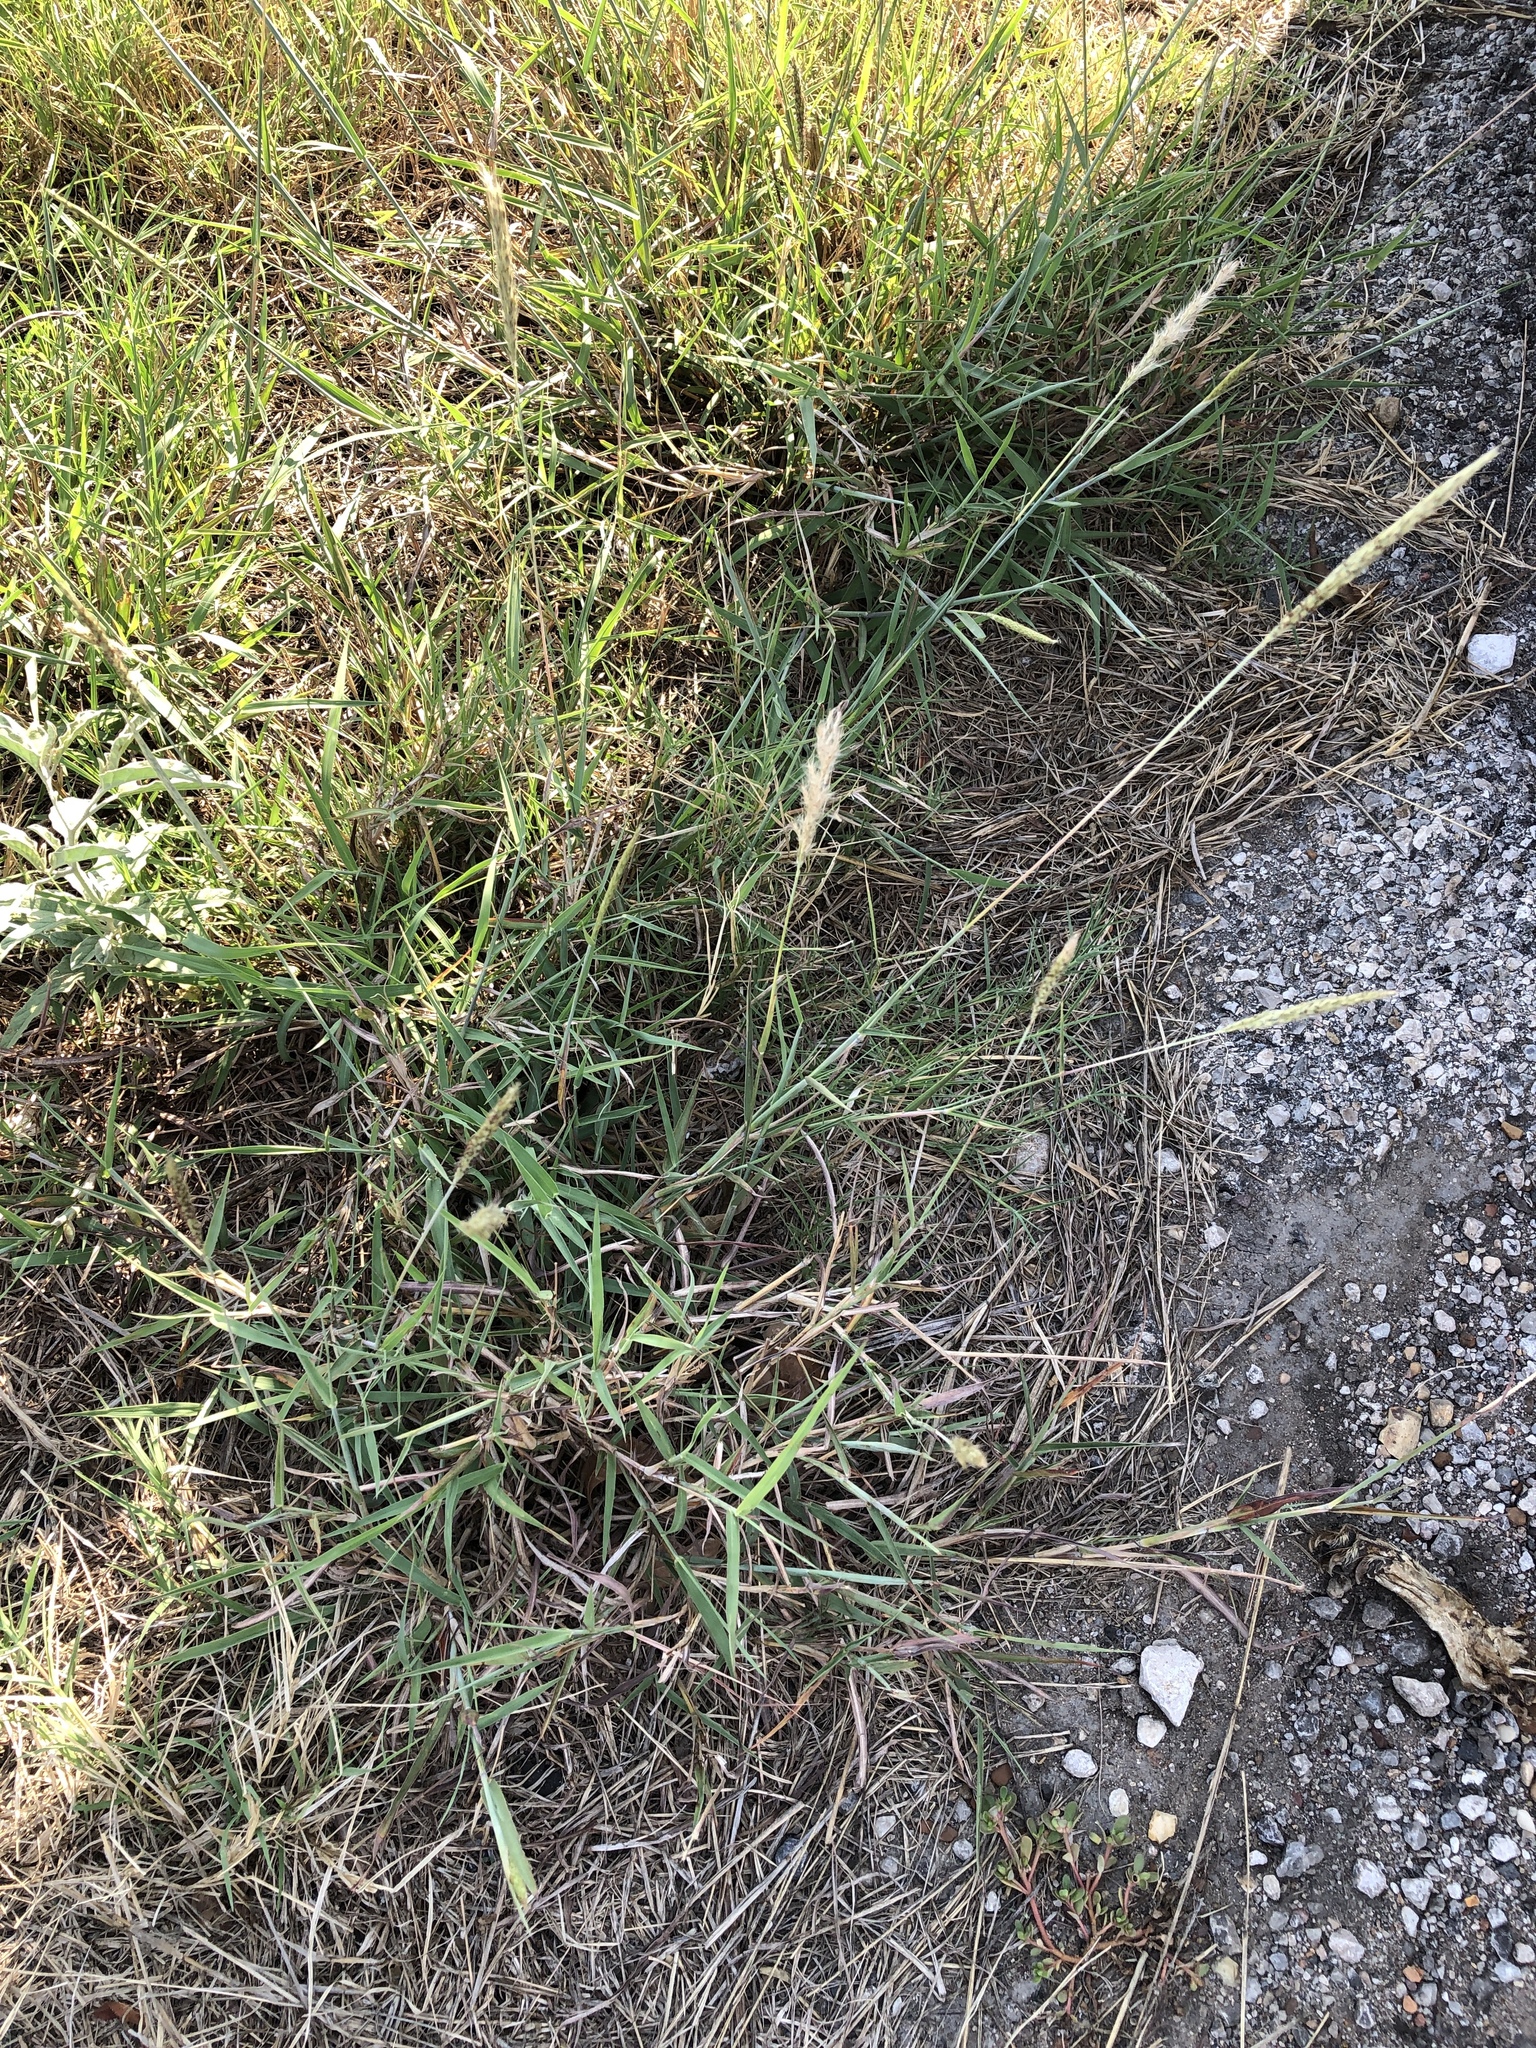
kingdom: Plantae
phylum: Tracheophyta
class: Liliopsida
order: Poales
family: Poaceae
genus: Bothriochloa
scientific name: Bothriochloa torreyana
